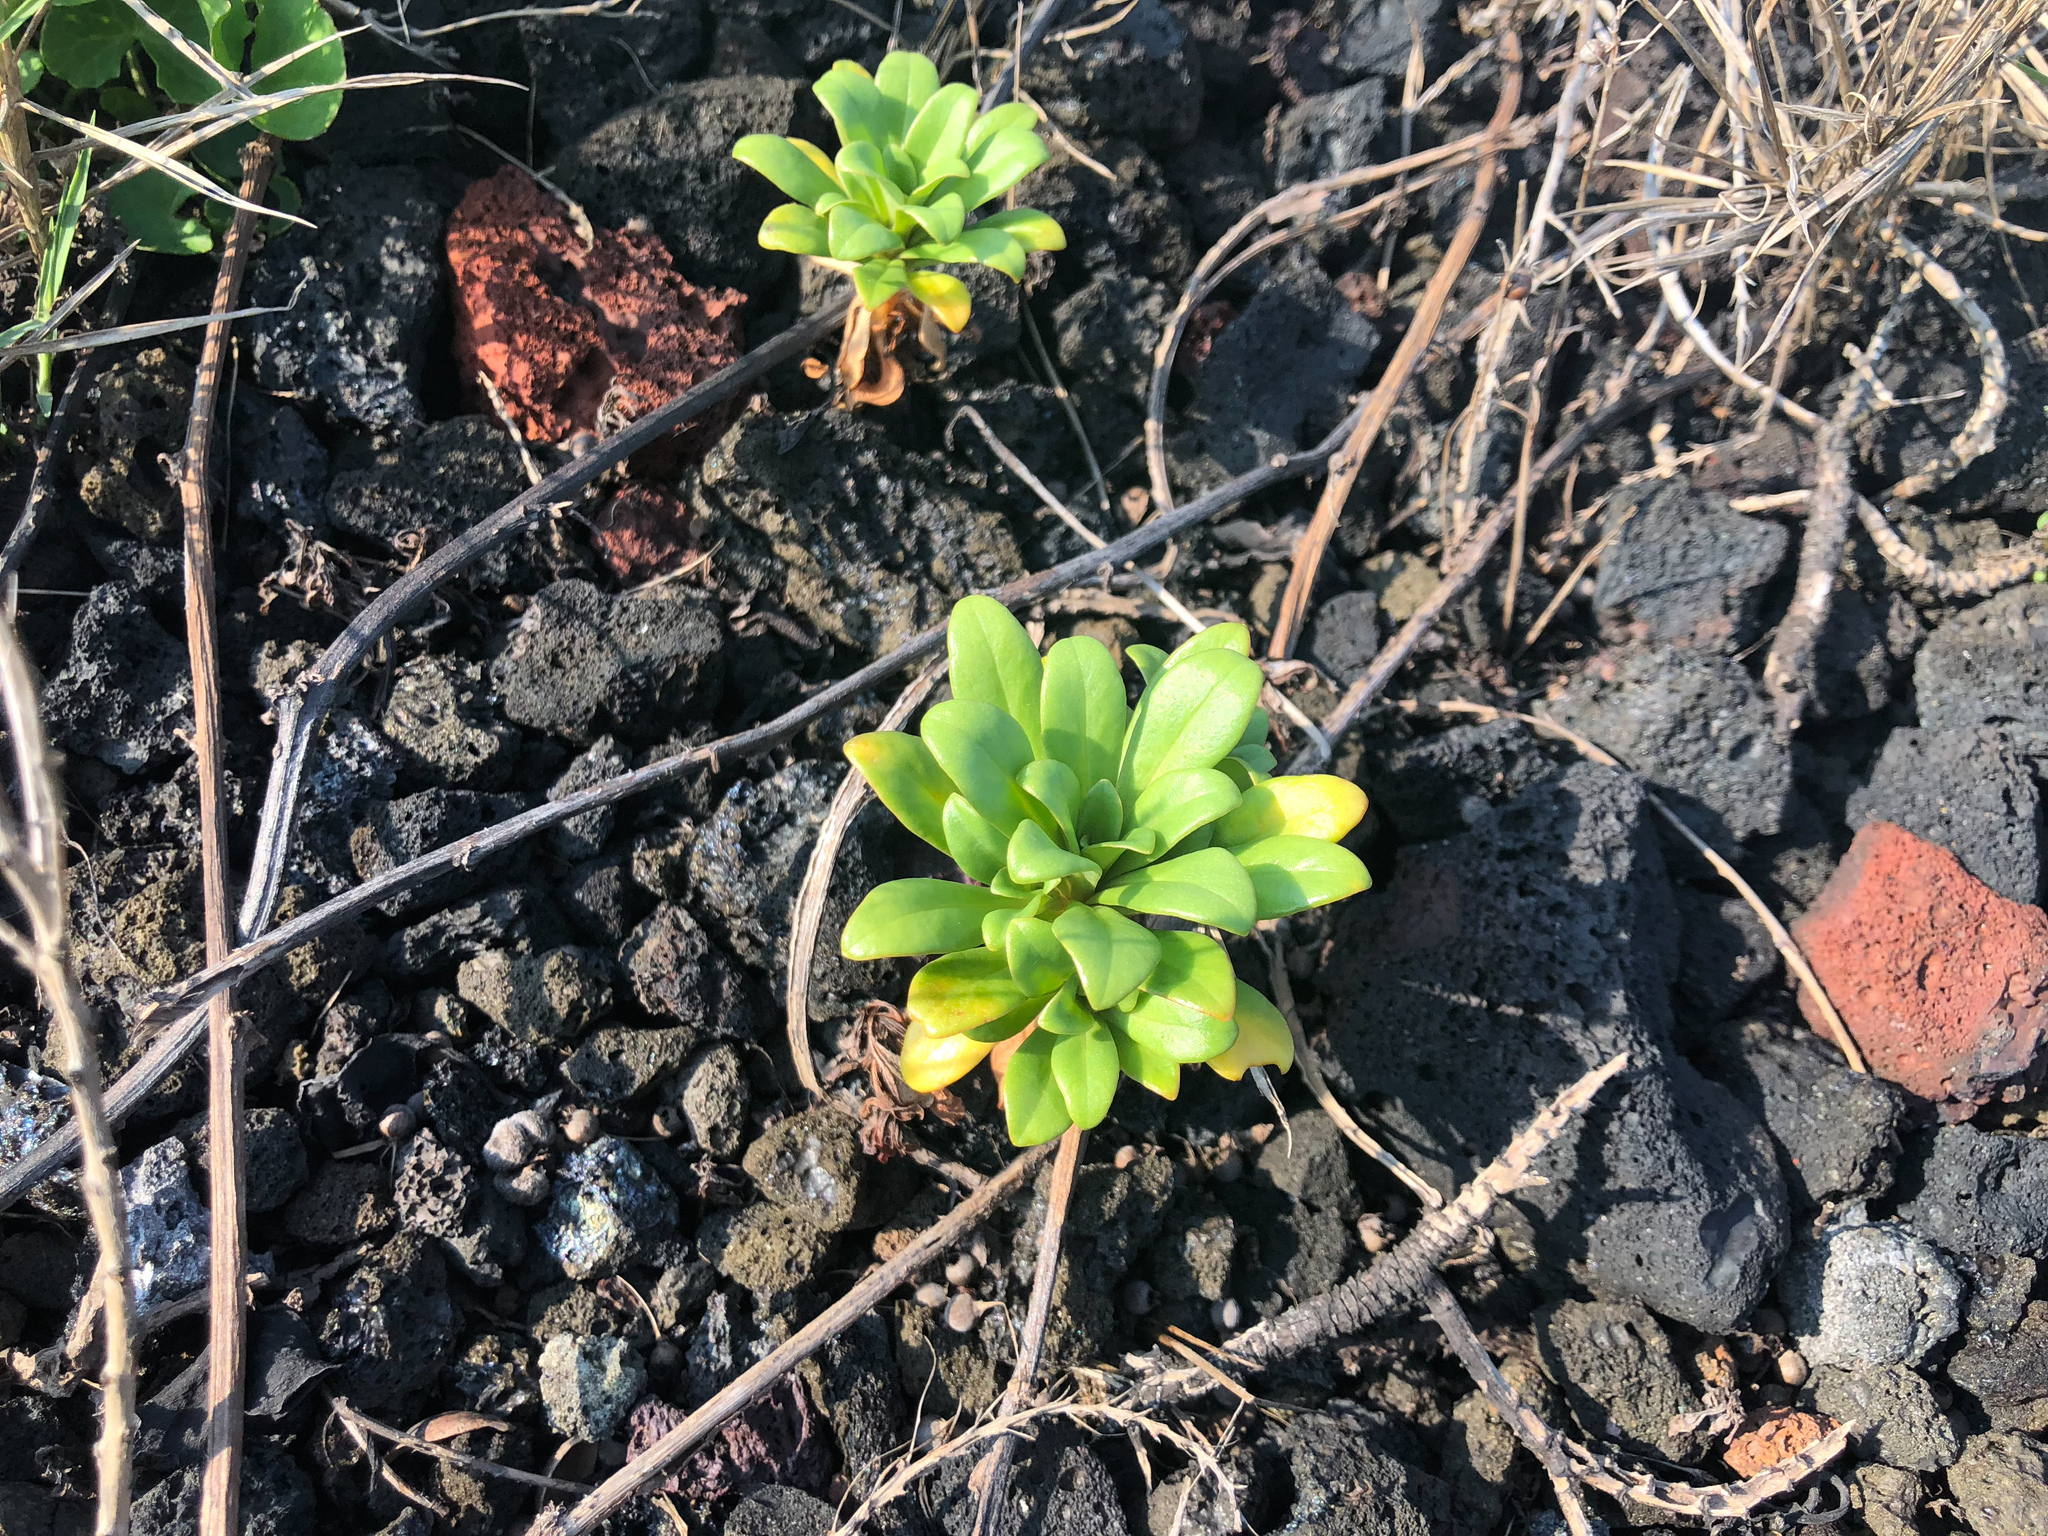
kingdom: Plantae
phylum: Tracheophyta
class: Magnoliopsida
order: Ericales
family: Primulaceae
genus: Lysimachia
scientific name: Lysimachia mauritiana
